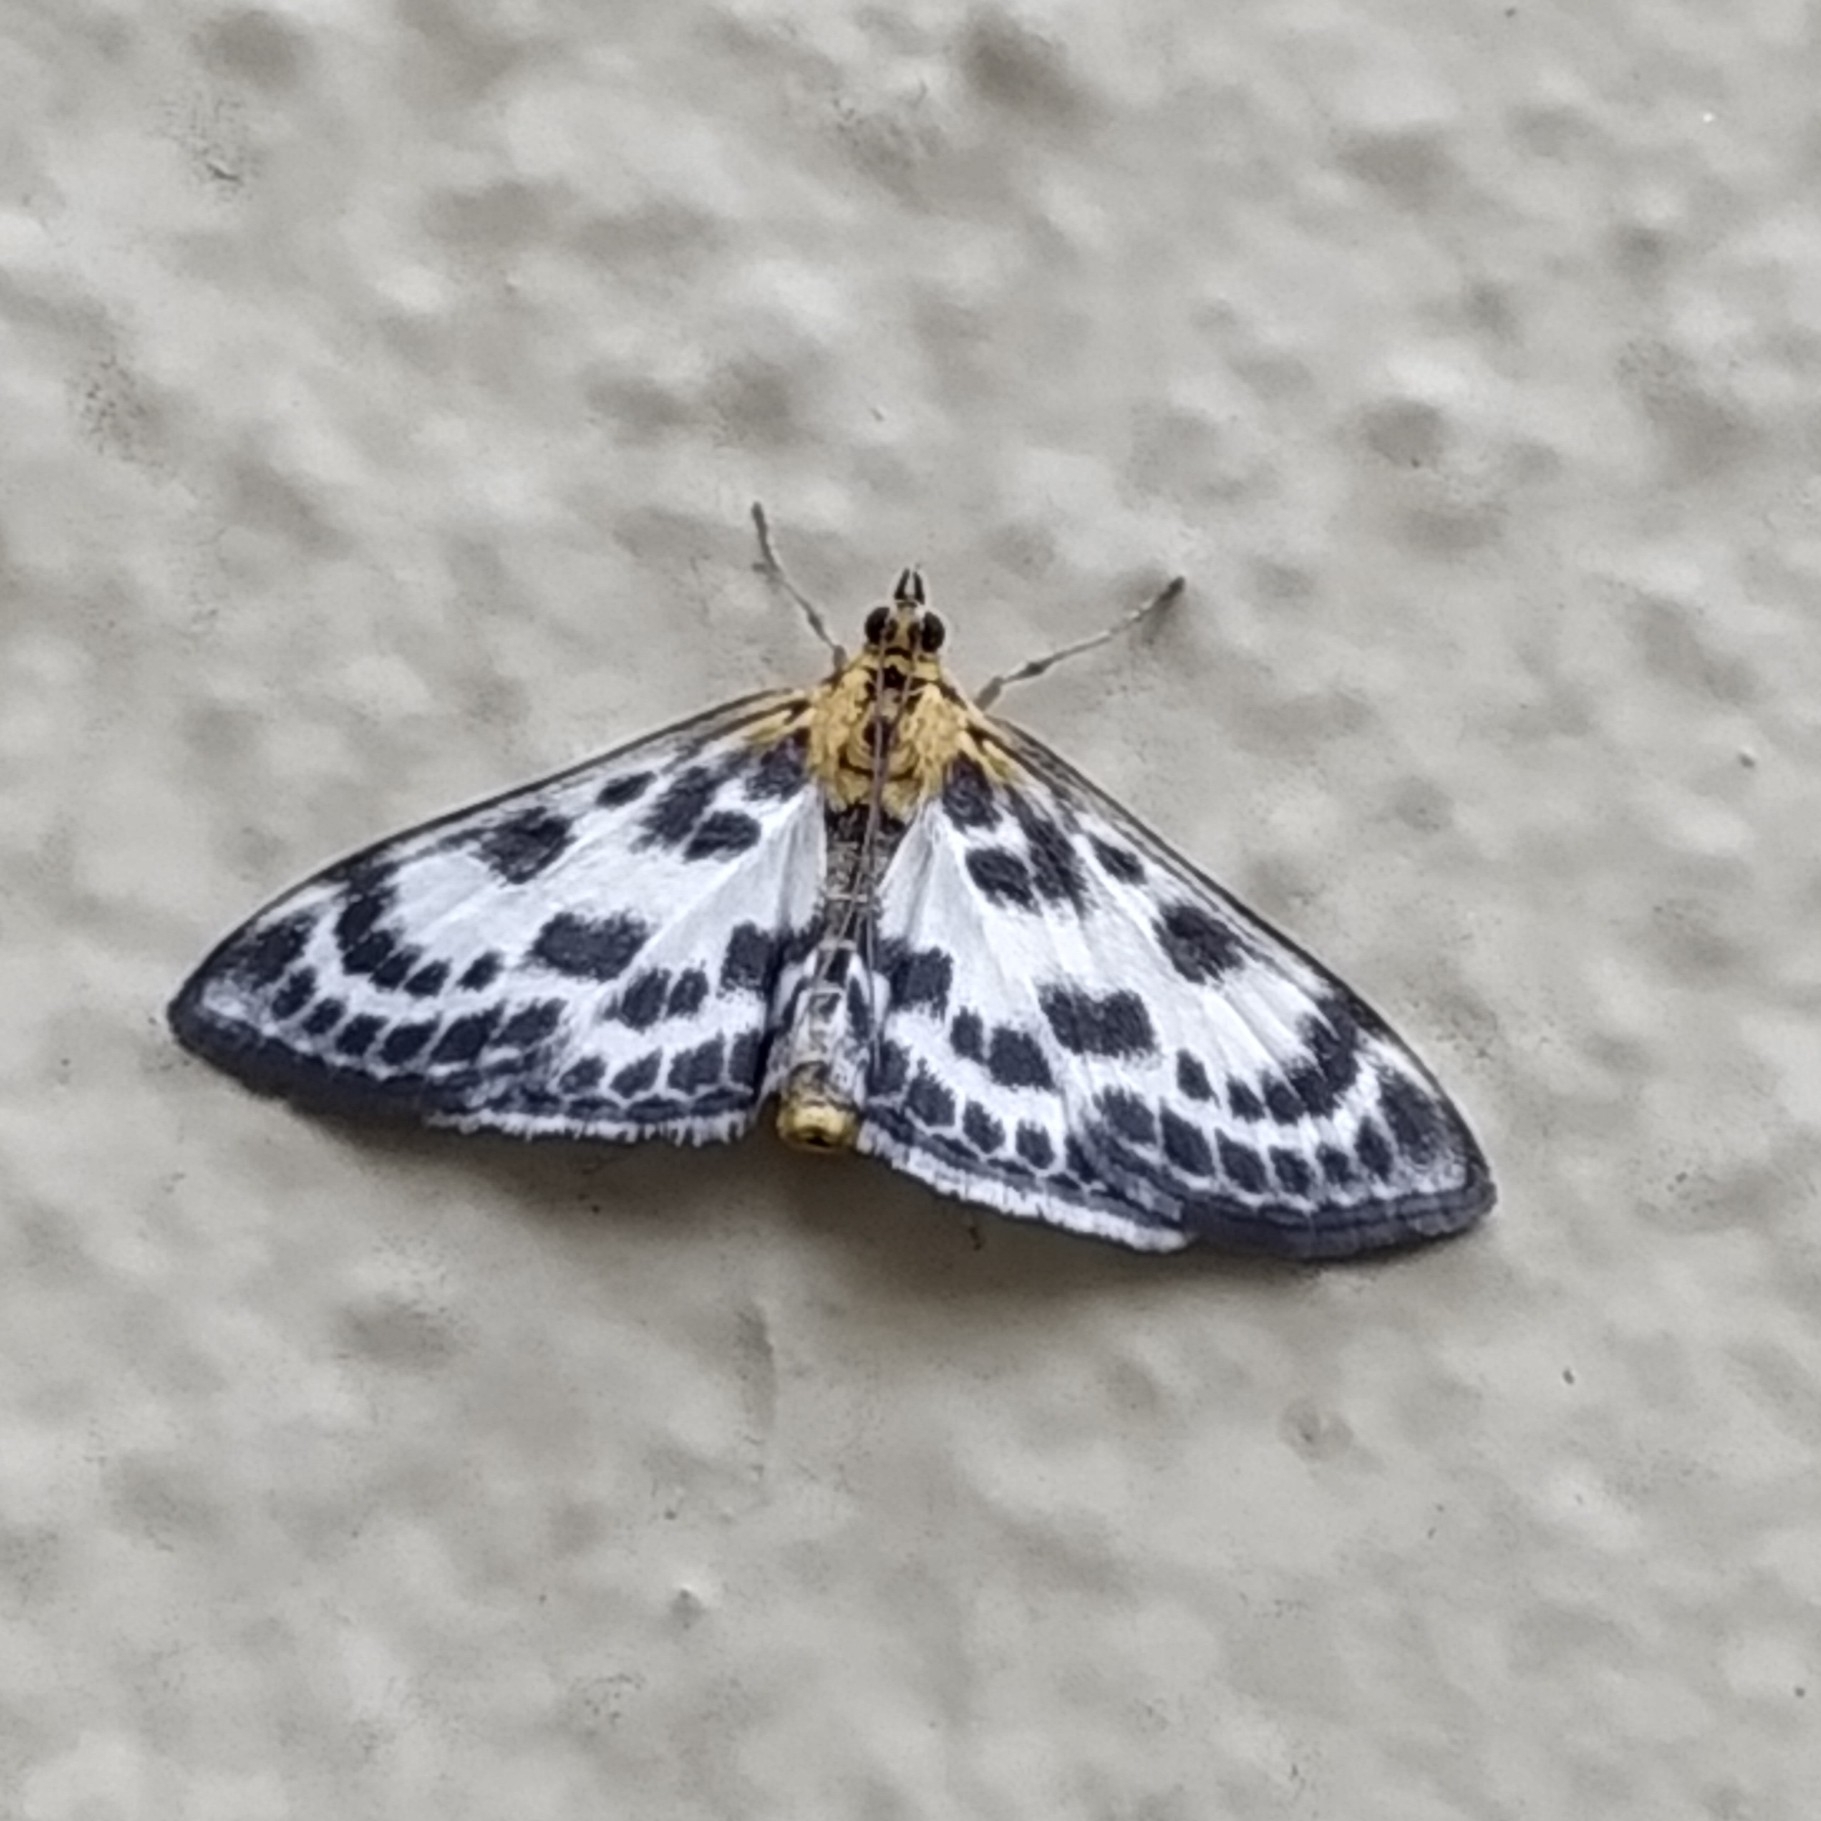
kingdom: Animalia
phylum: Arthropoda
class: Insecta
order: Lepidoptera
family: Crambidae
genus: Anania
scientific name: Anania hortulata
